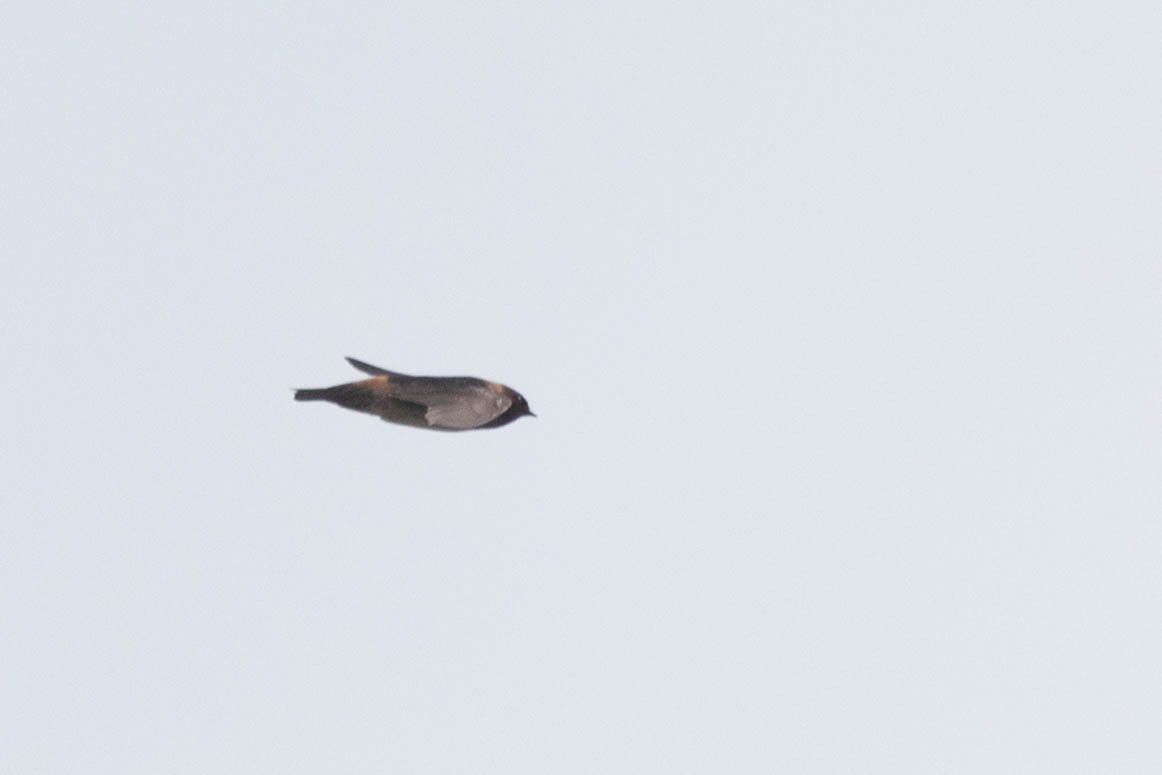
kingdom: Animalia
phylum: Chordata
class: Aves
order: Passeriformes
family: Hirundinidae
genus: Petrochelidon
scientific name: Petrochelidon pyrrhonota
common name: American cliff swallow
